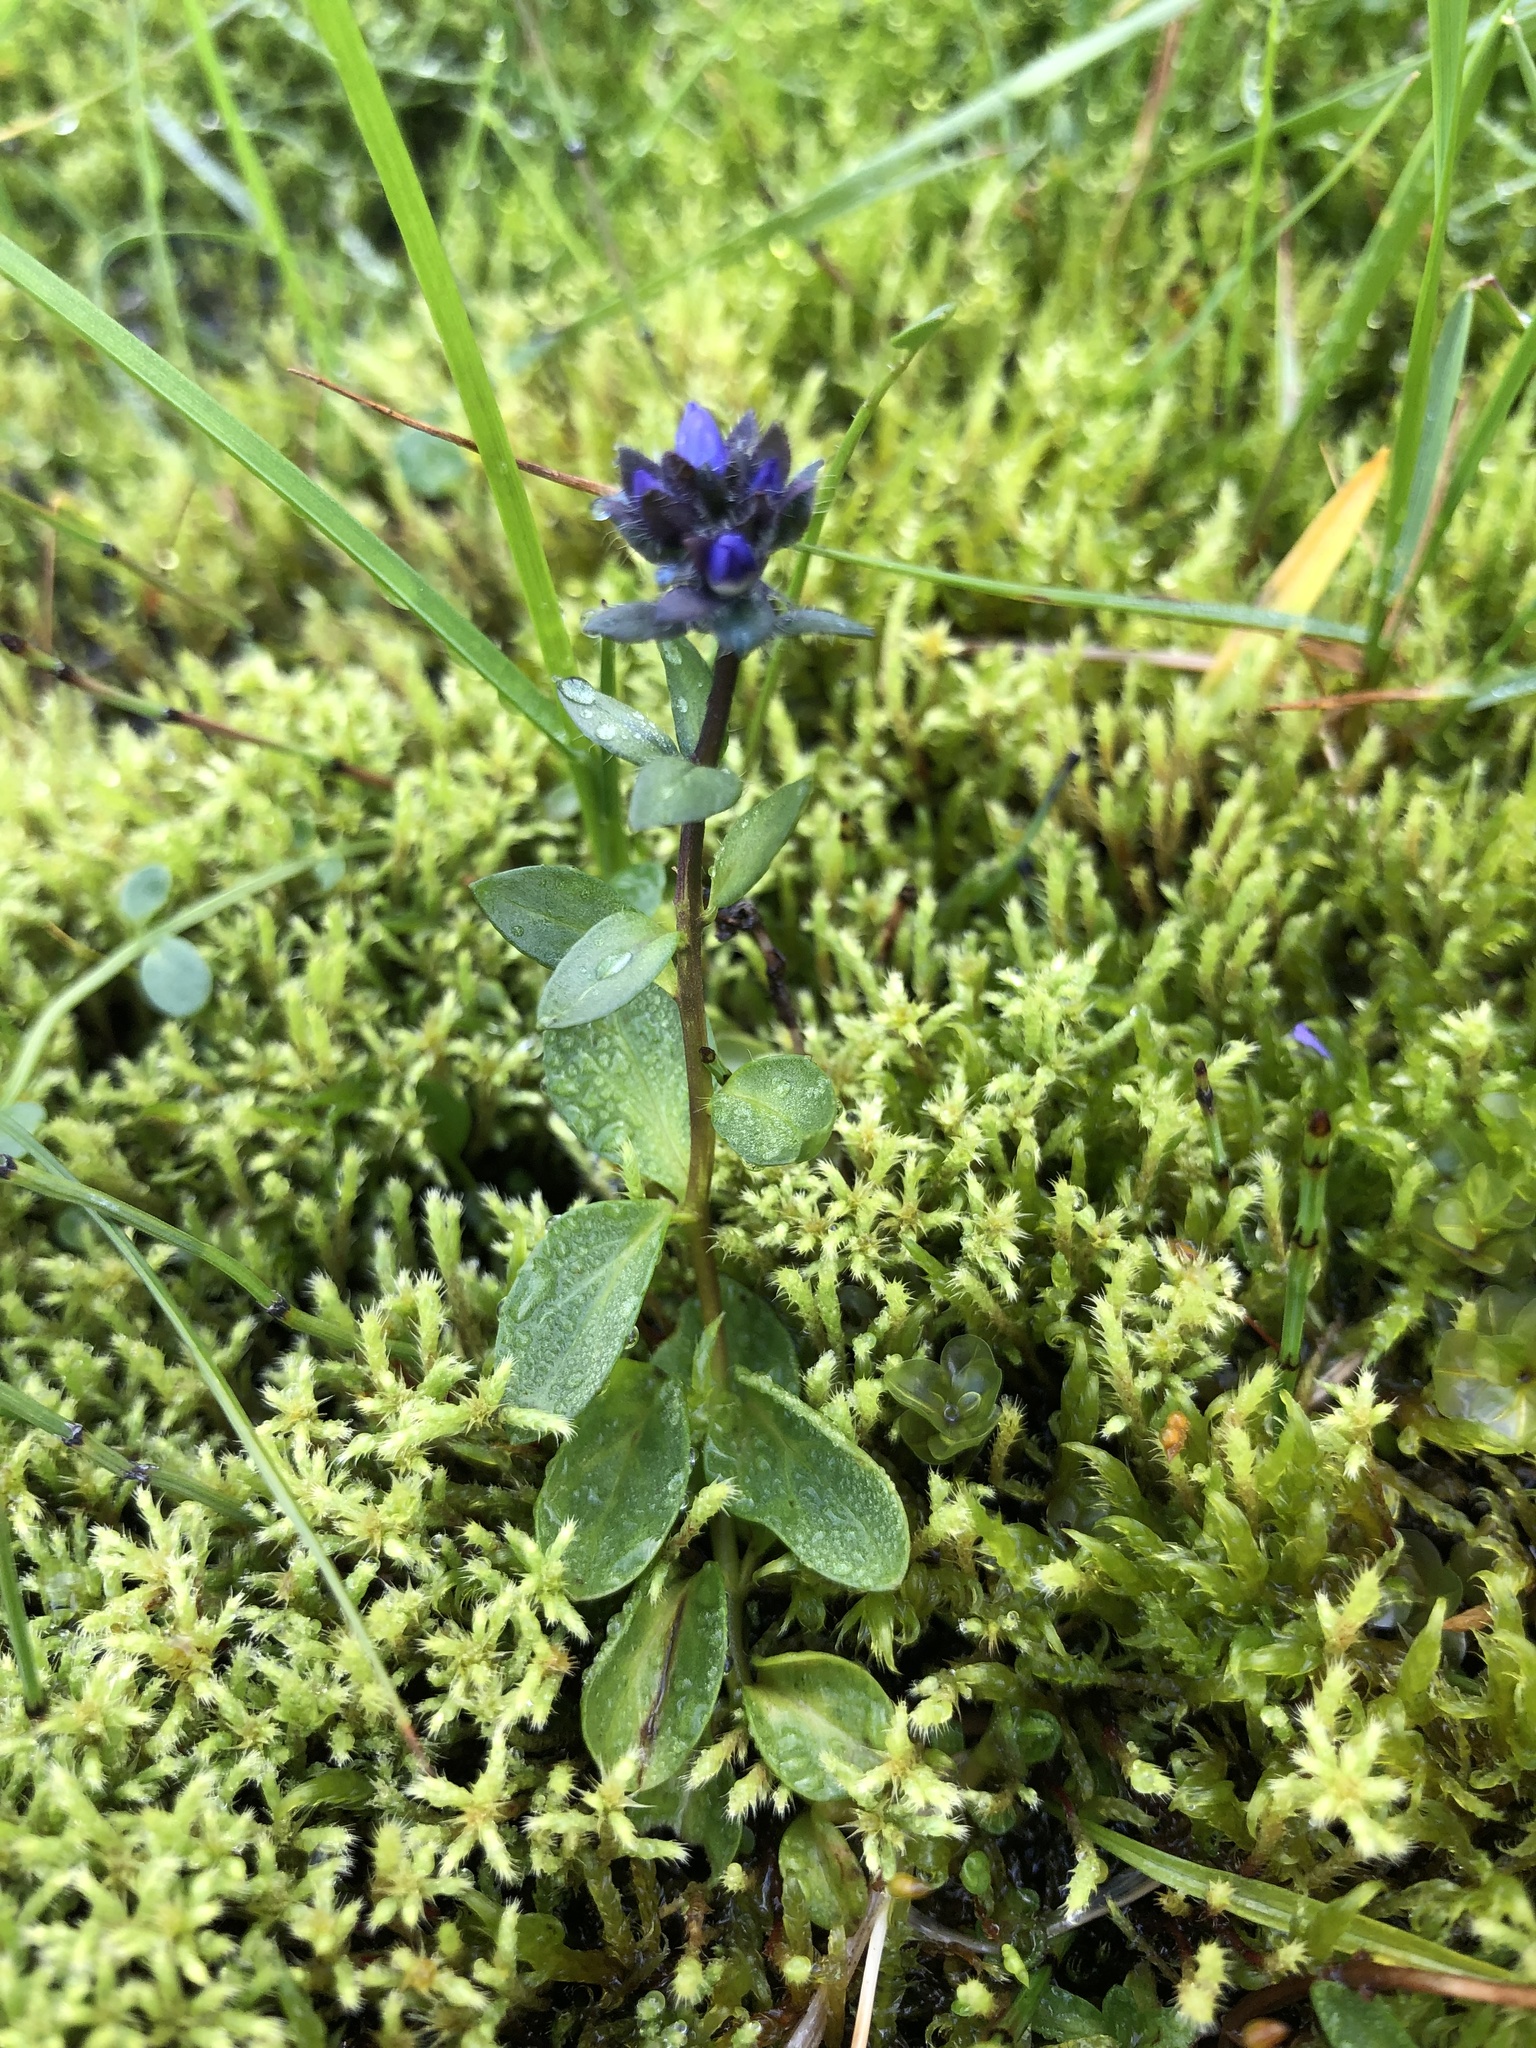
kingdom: Plantae
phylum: Tracheophyta
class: Magnoliopsida
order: Lamiales
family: Plantaginaceae
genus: Veronica
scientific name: Veronica alpina
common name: Alpine speedwell
